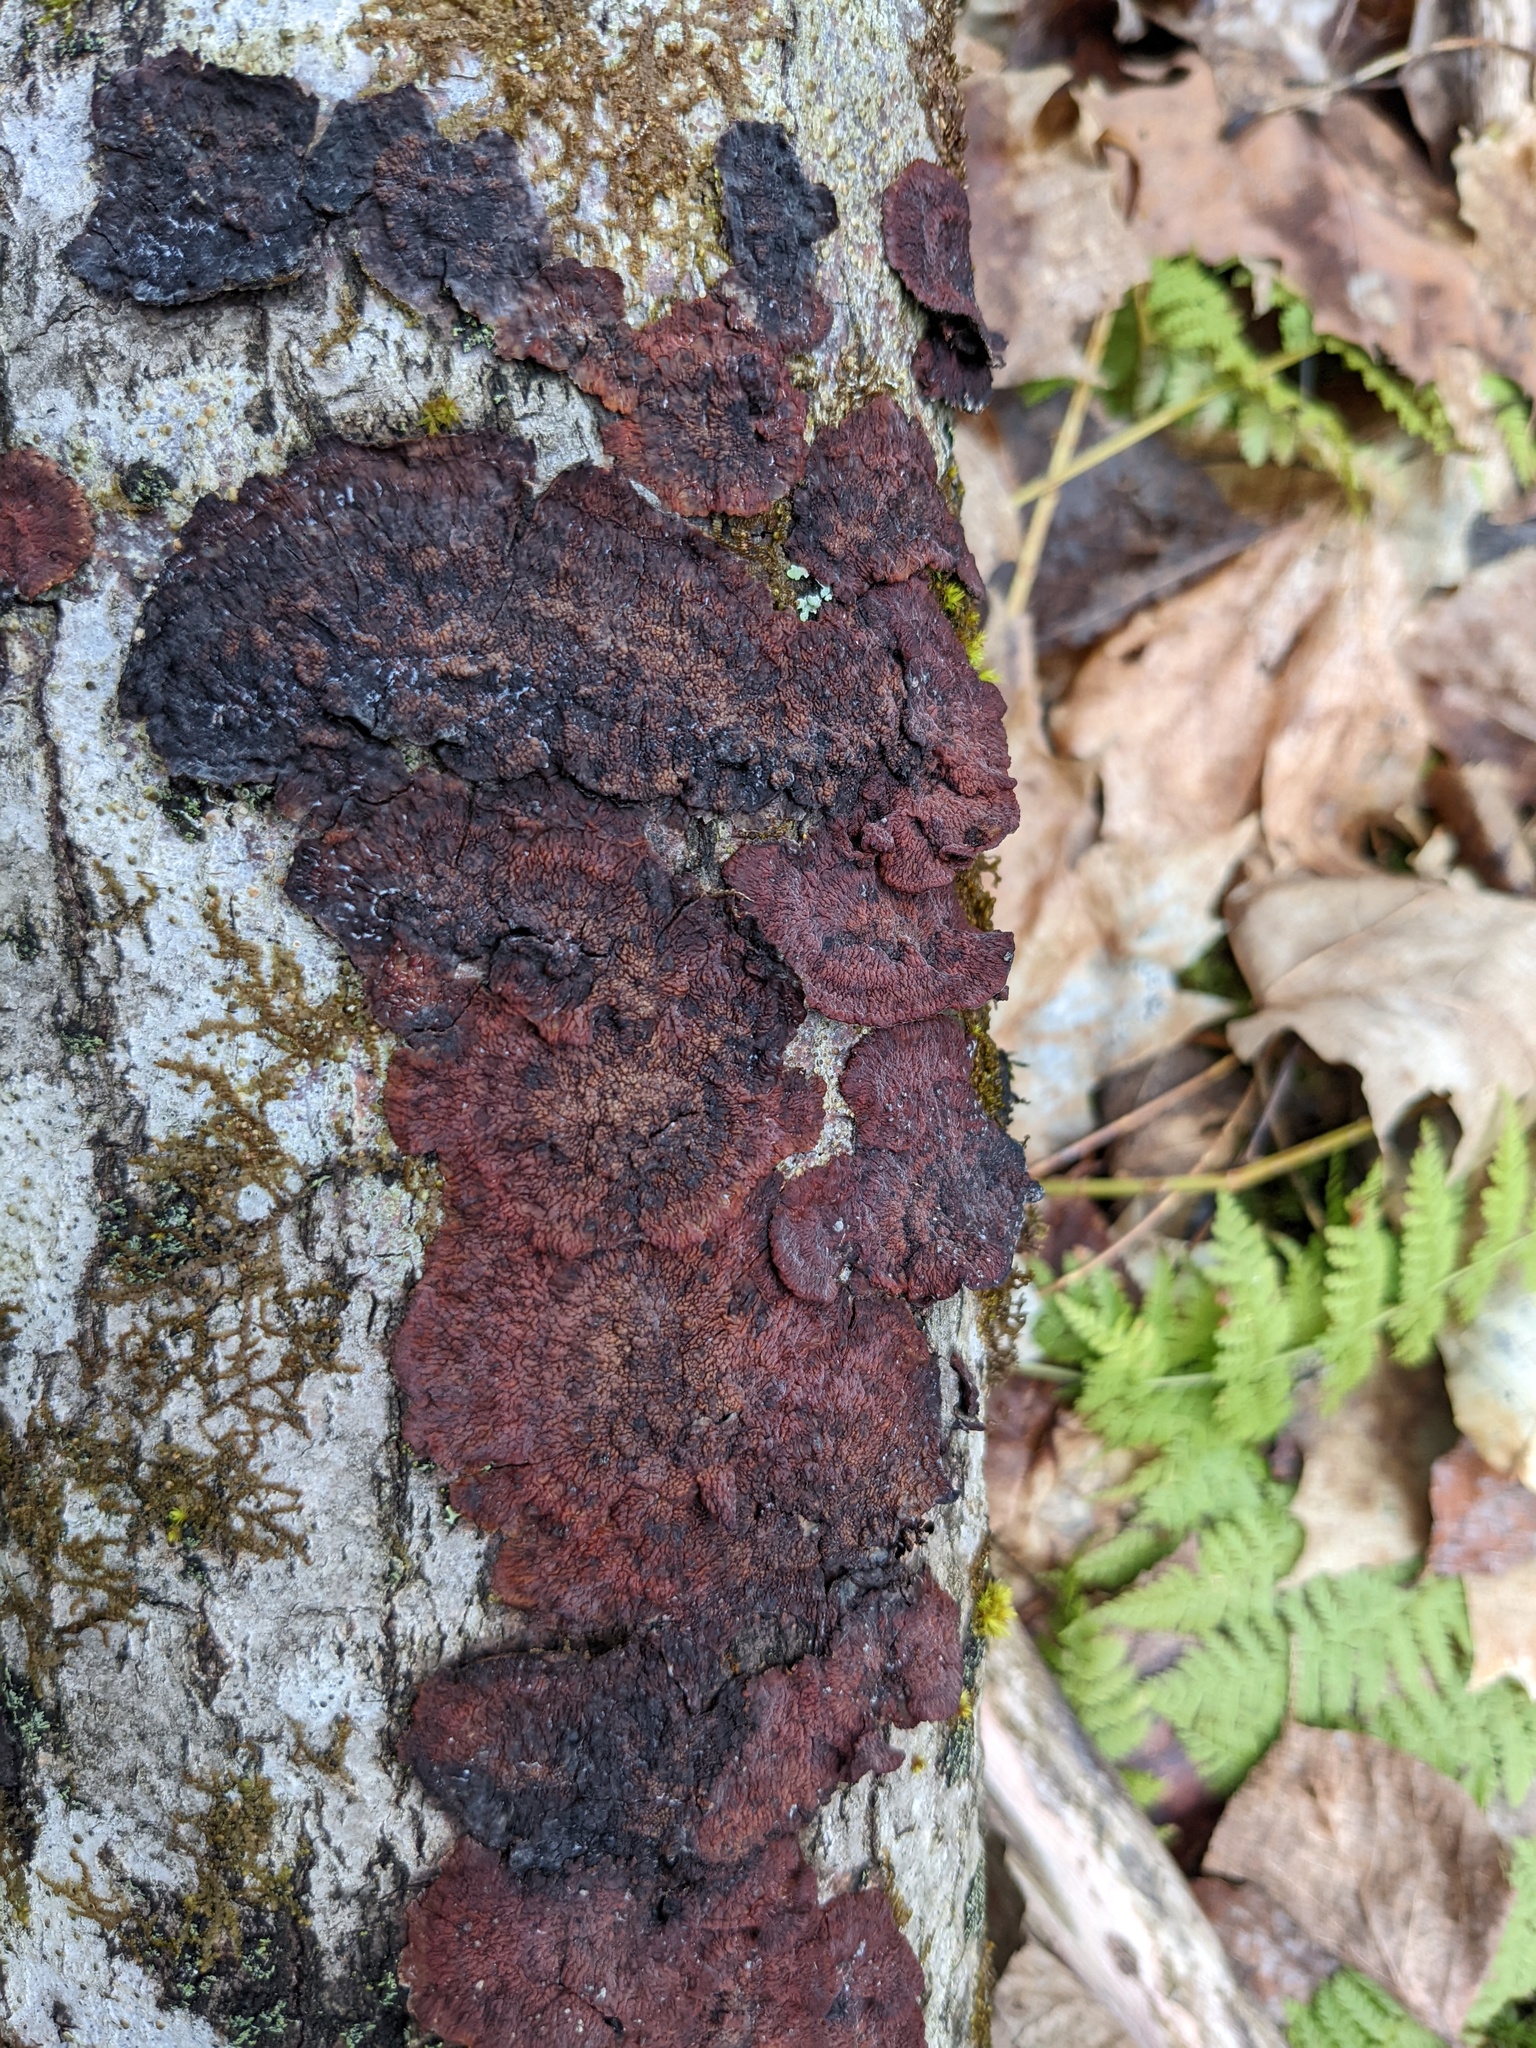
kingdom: Fungi
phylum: Basidiomycota
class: Agaricomycetes
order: Corticiales
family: Punctulariaceae
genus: Punctularia
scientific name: Punctularia strigosozonata
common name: White-rot fungus
